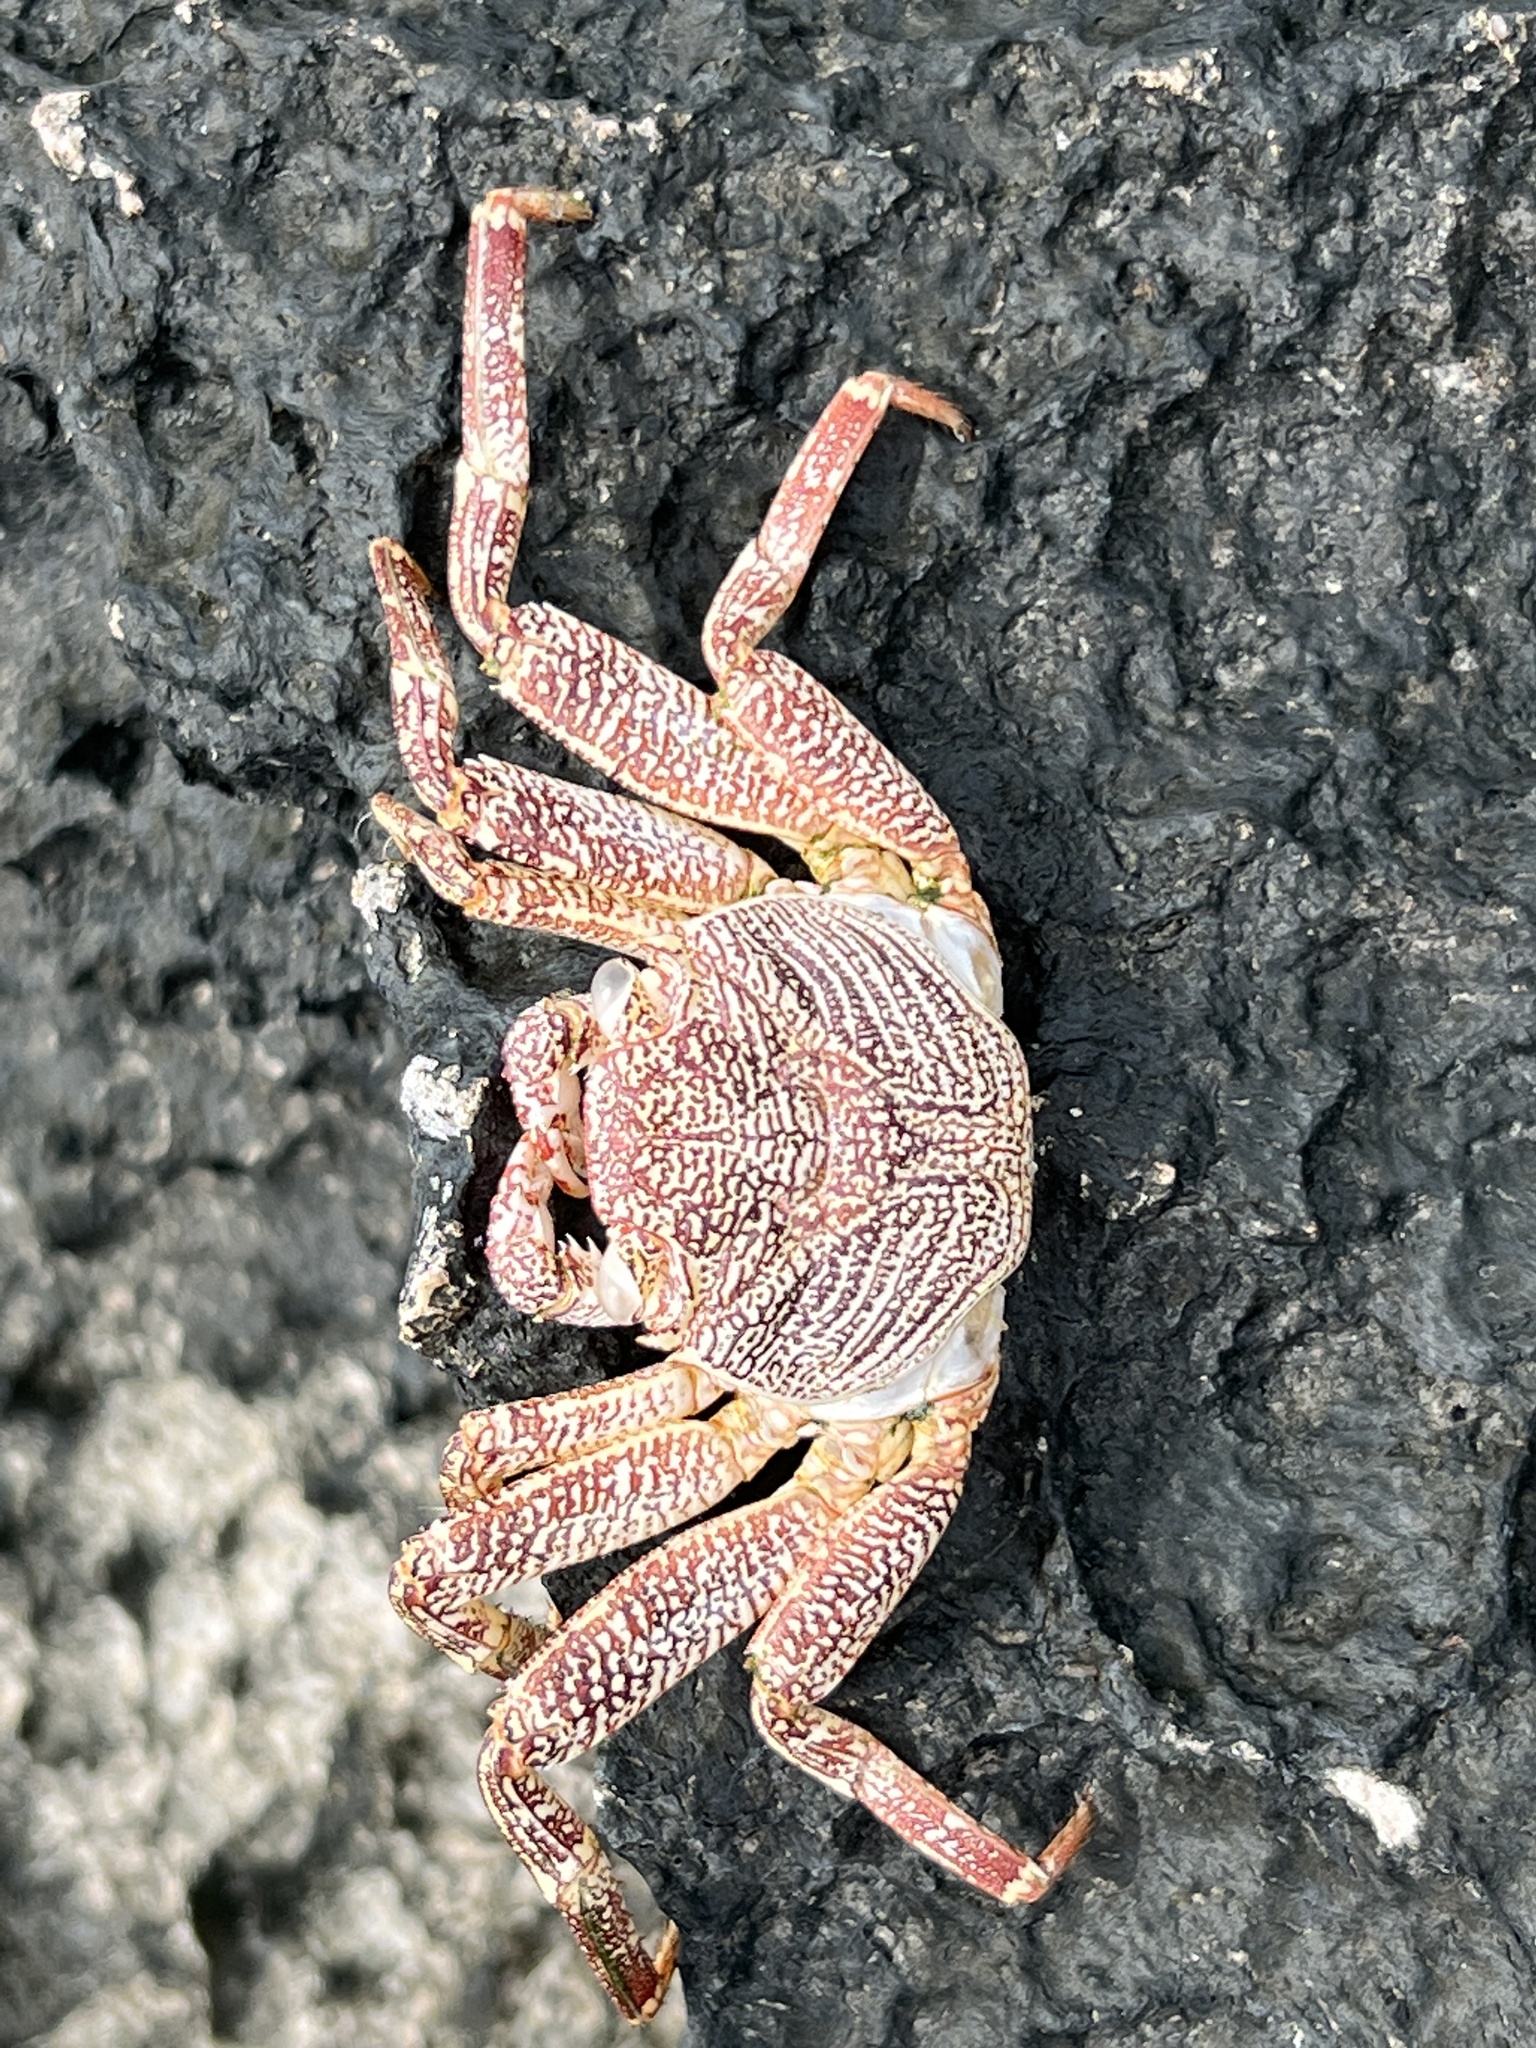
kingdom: Animalia
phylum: Arthropoda
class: Malacostraca
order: Decapoda
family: Grapsidae
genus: Grapsus
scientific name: Grapsus tenuicrustatus
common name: Natal lightfoot crab
